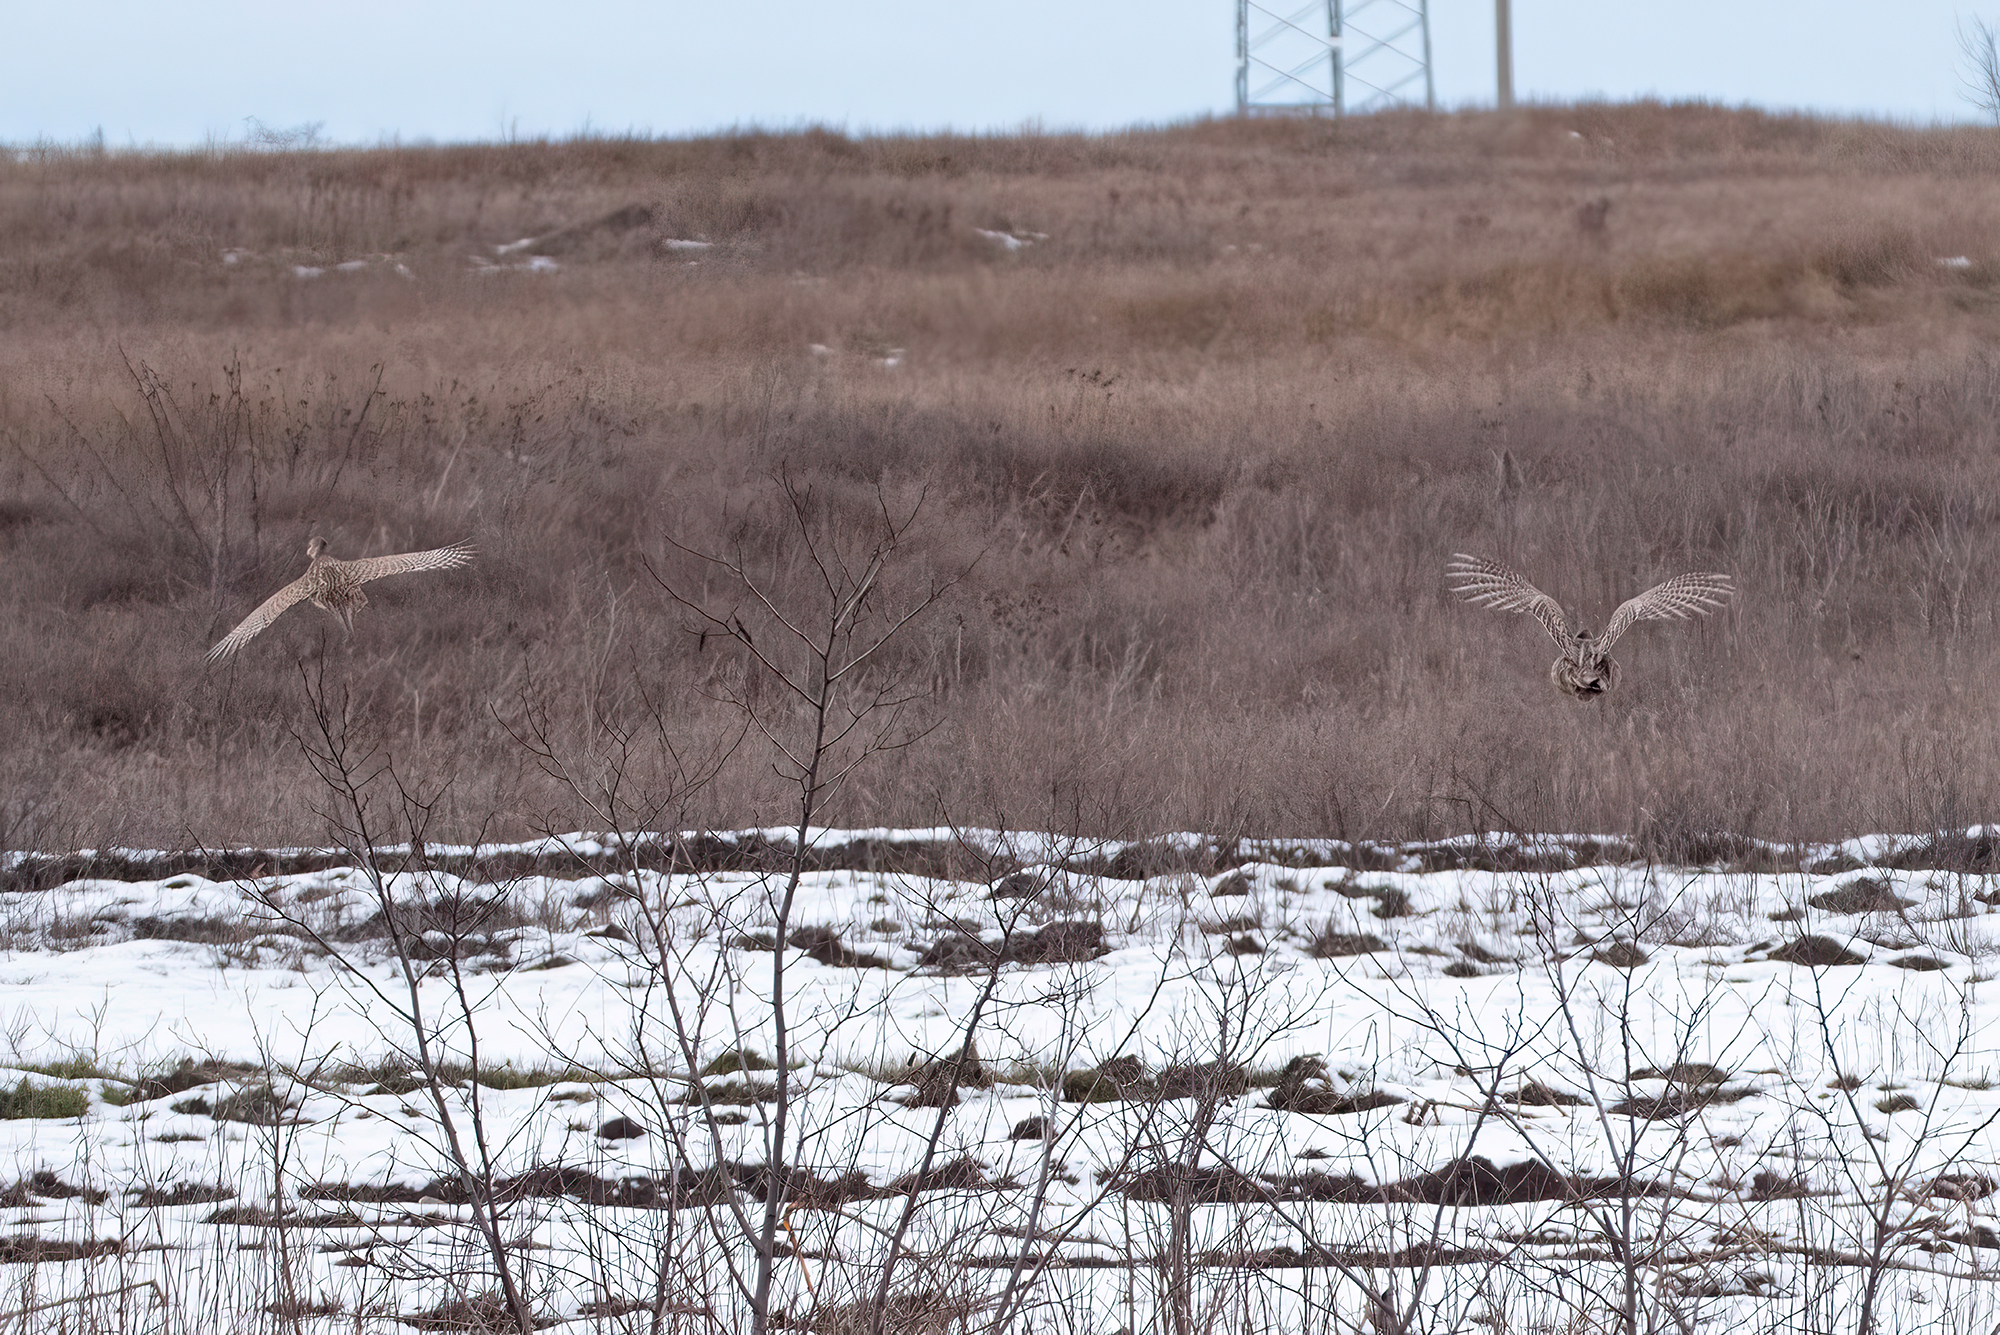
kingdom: Animalia
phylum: Chordata
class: Aves
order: Galliformes
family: Phasianidae
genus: Phasianus
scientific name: Phasianus colchicus
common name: Common pheasant
